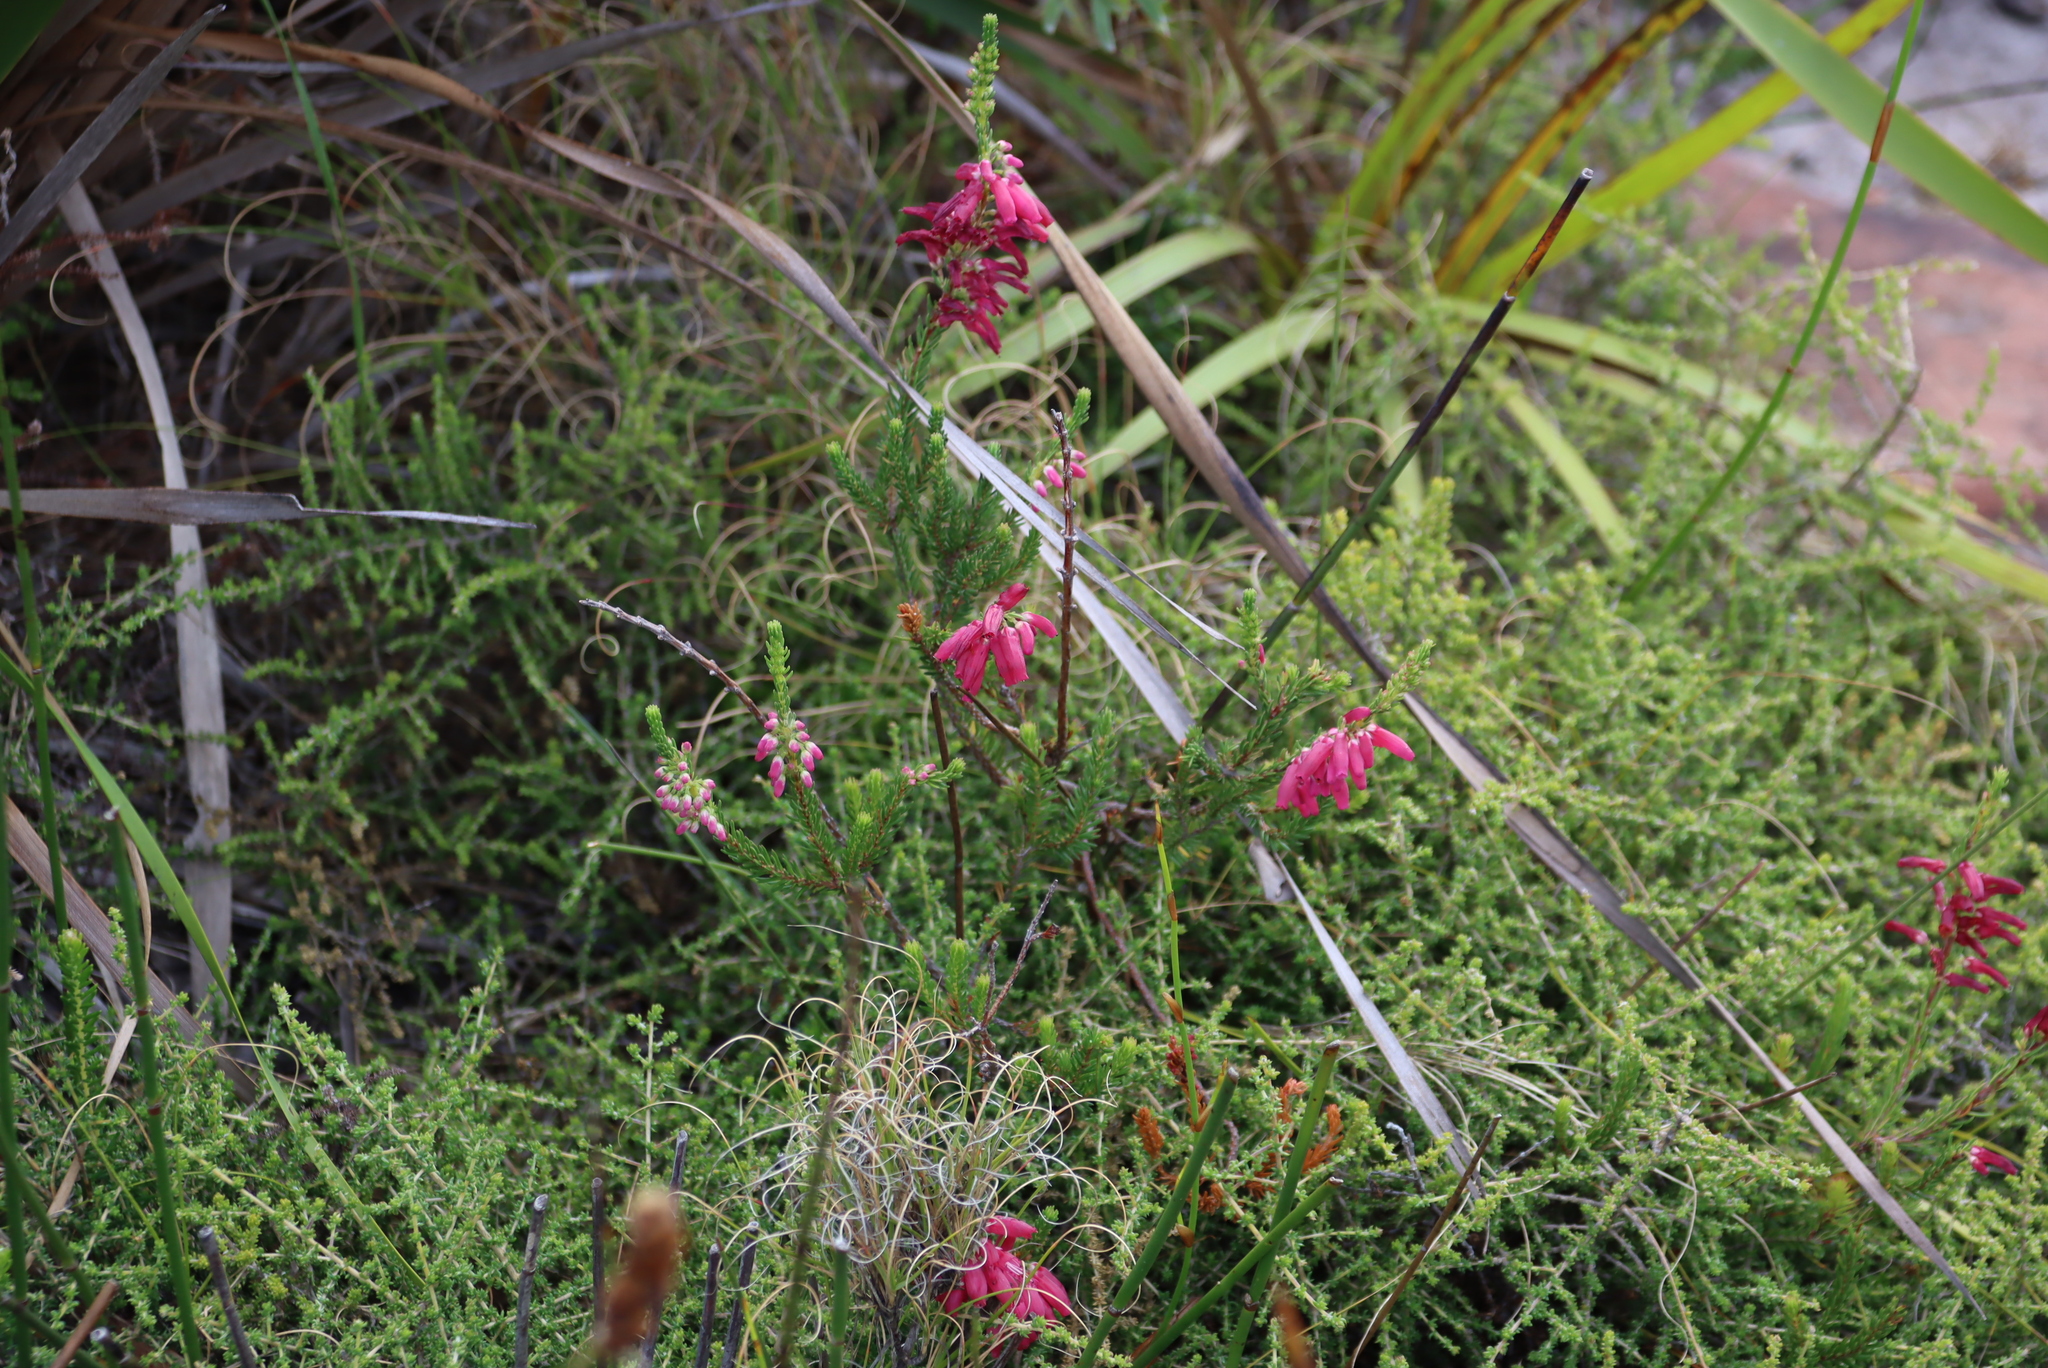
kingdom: Plantae
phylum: Tracheophyta
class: Magnoliopsida
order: Ericales
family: Ericaceae
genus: Erica
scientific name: Erica mammosa
